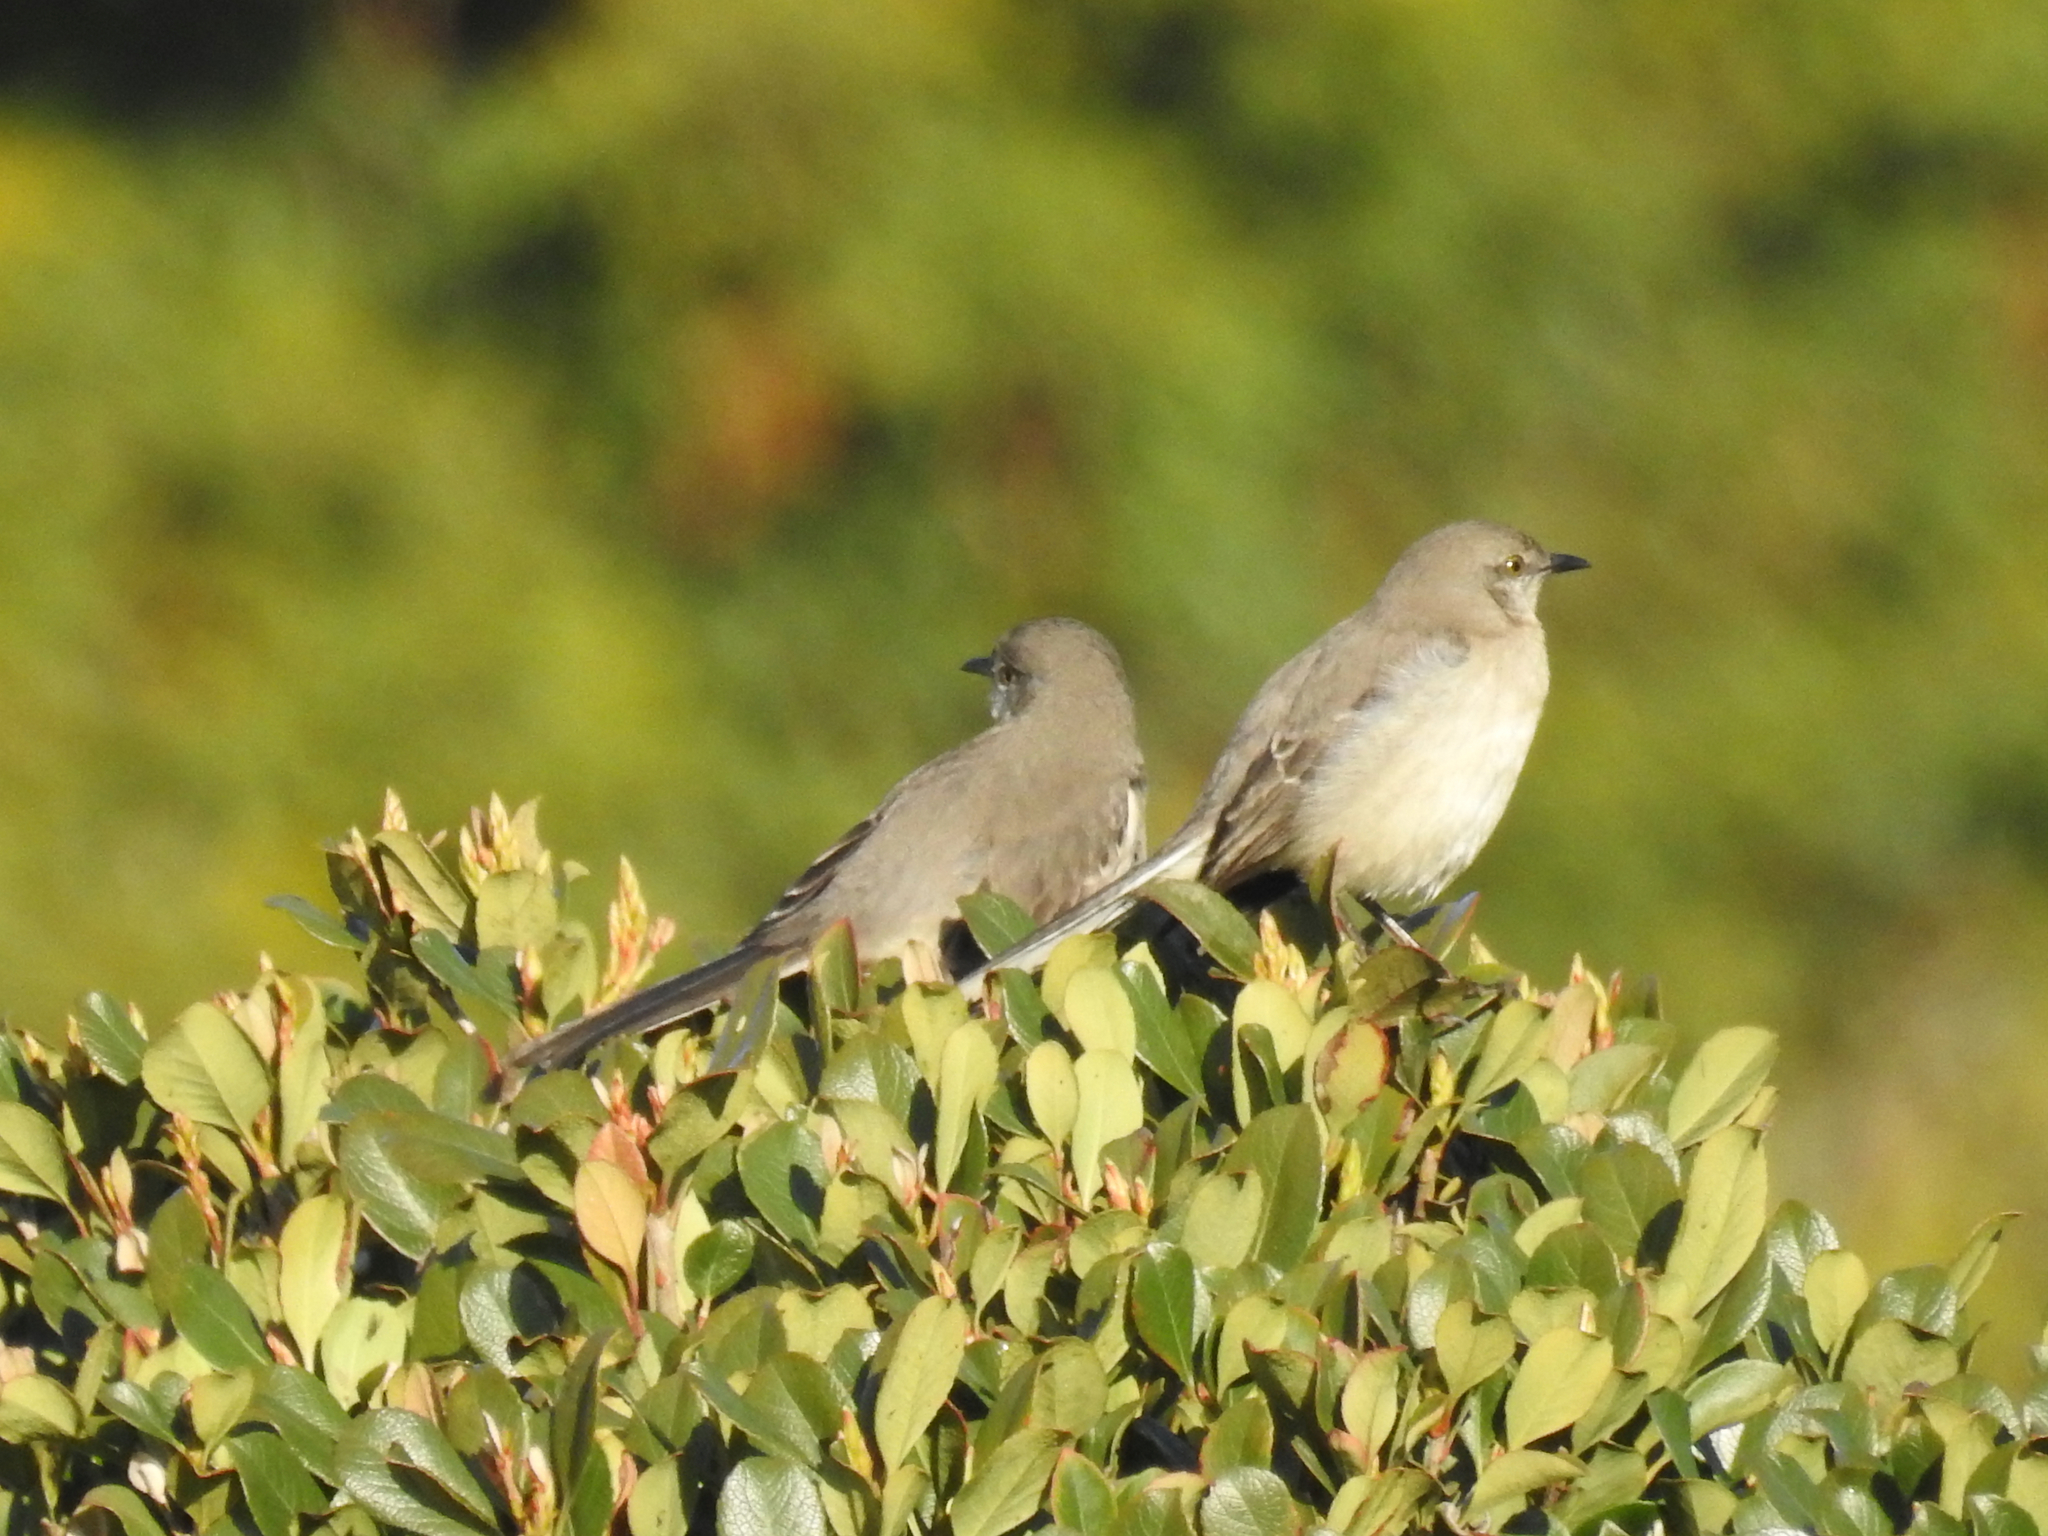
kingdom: Animalia
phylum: Chordata
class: Aves
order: Passeriformes
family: Mimidae
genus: Mimus
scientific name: Mimus polyglottos
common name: Northern mockingbird
